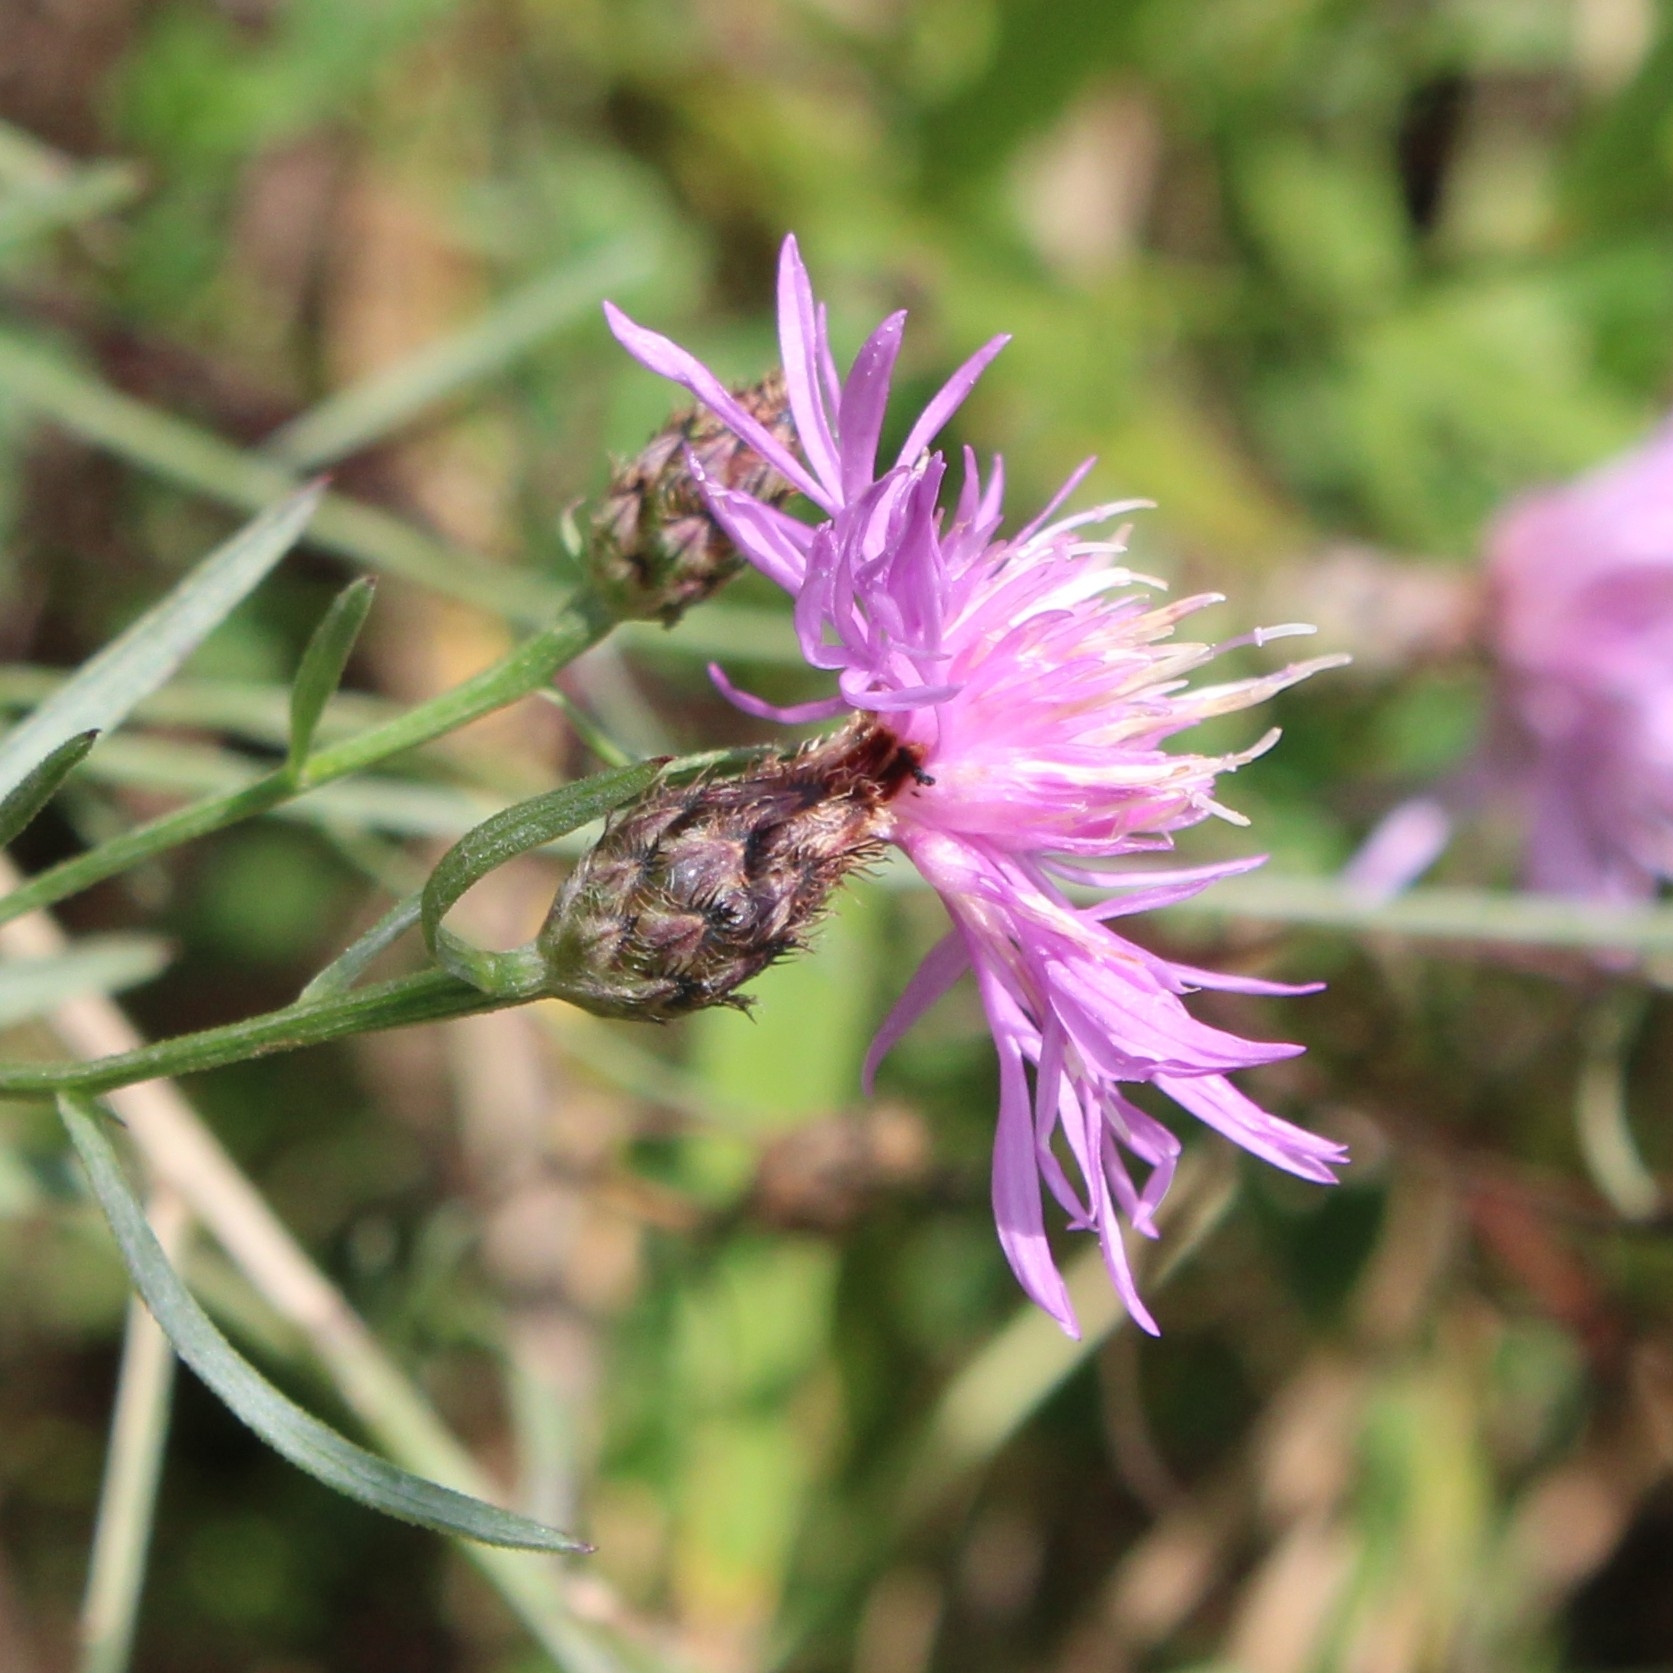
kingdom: Plantae
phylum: Tracheophyta
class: Magnoliopsida
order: Asterales
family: Asteraceae
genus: Centaurea
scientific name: Centaurea stoebe
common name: Spotted knapweed
